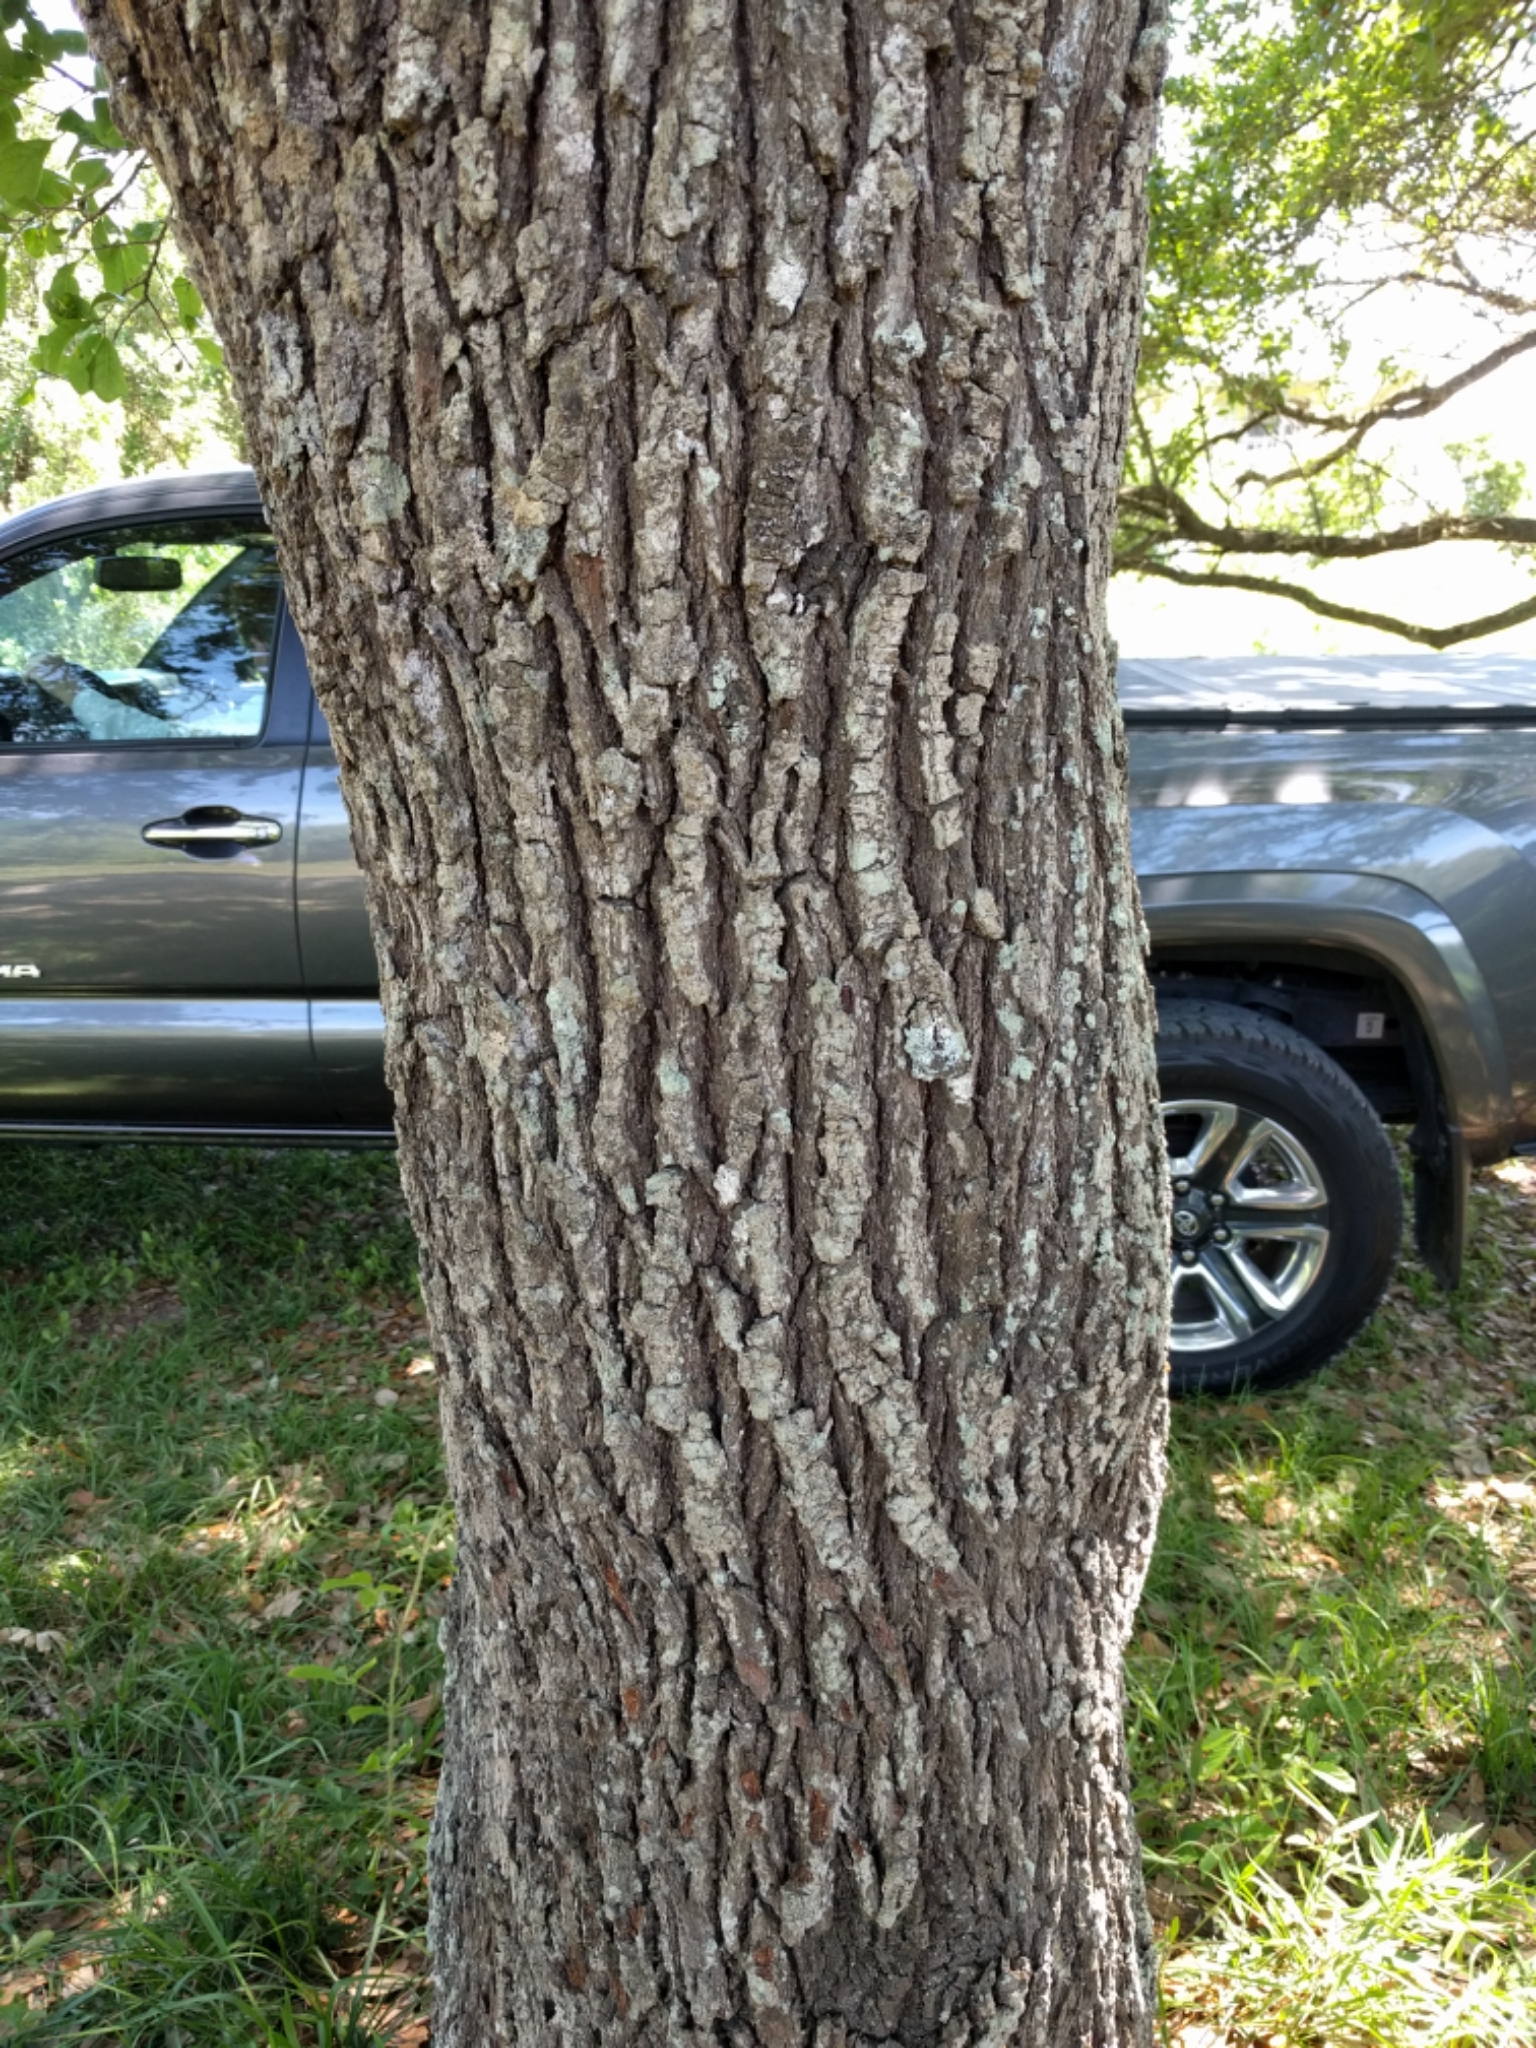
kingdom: Plantae
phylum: Tracheophyta
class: Magnoliopsida
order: Fagales
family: Fagaceae
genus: Quercus
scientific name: Quercus virginiana
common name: Southern live oak
